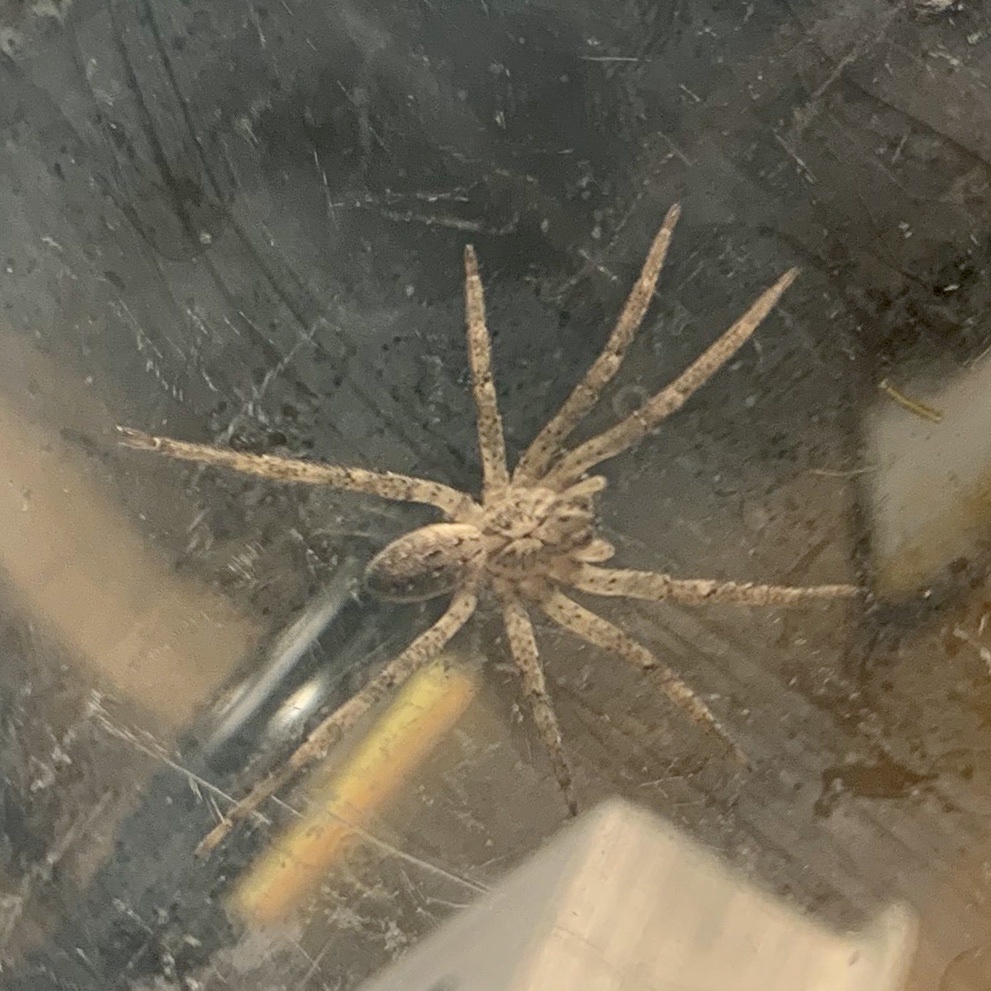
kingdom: Animalia
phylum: Arthropoda
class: Arachnida
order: Araneae
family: Zoropsidae
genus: Zoropsis
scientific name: Zoropsis spinimana
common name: Zoropsid spider
